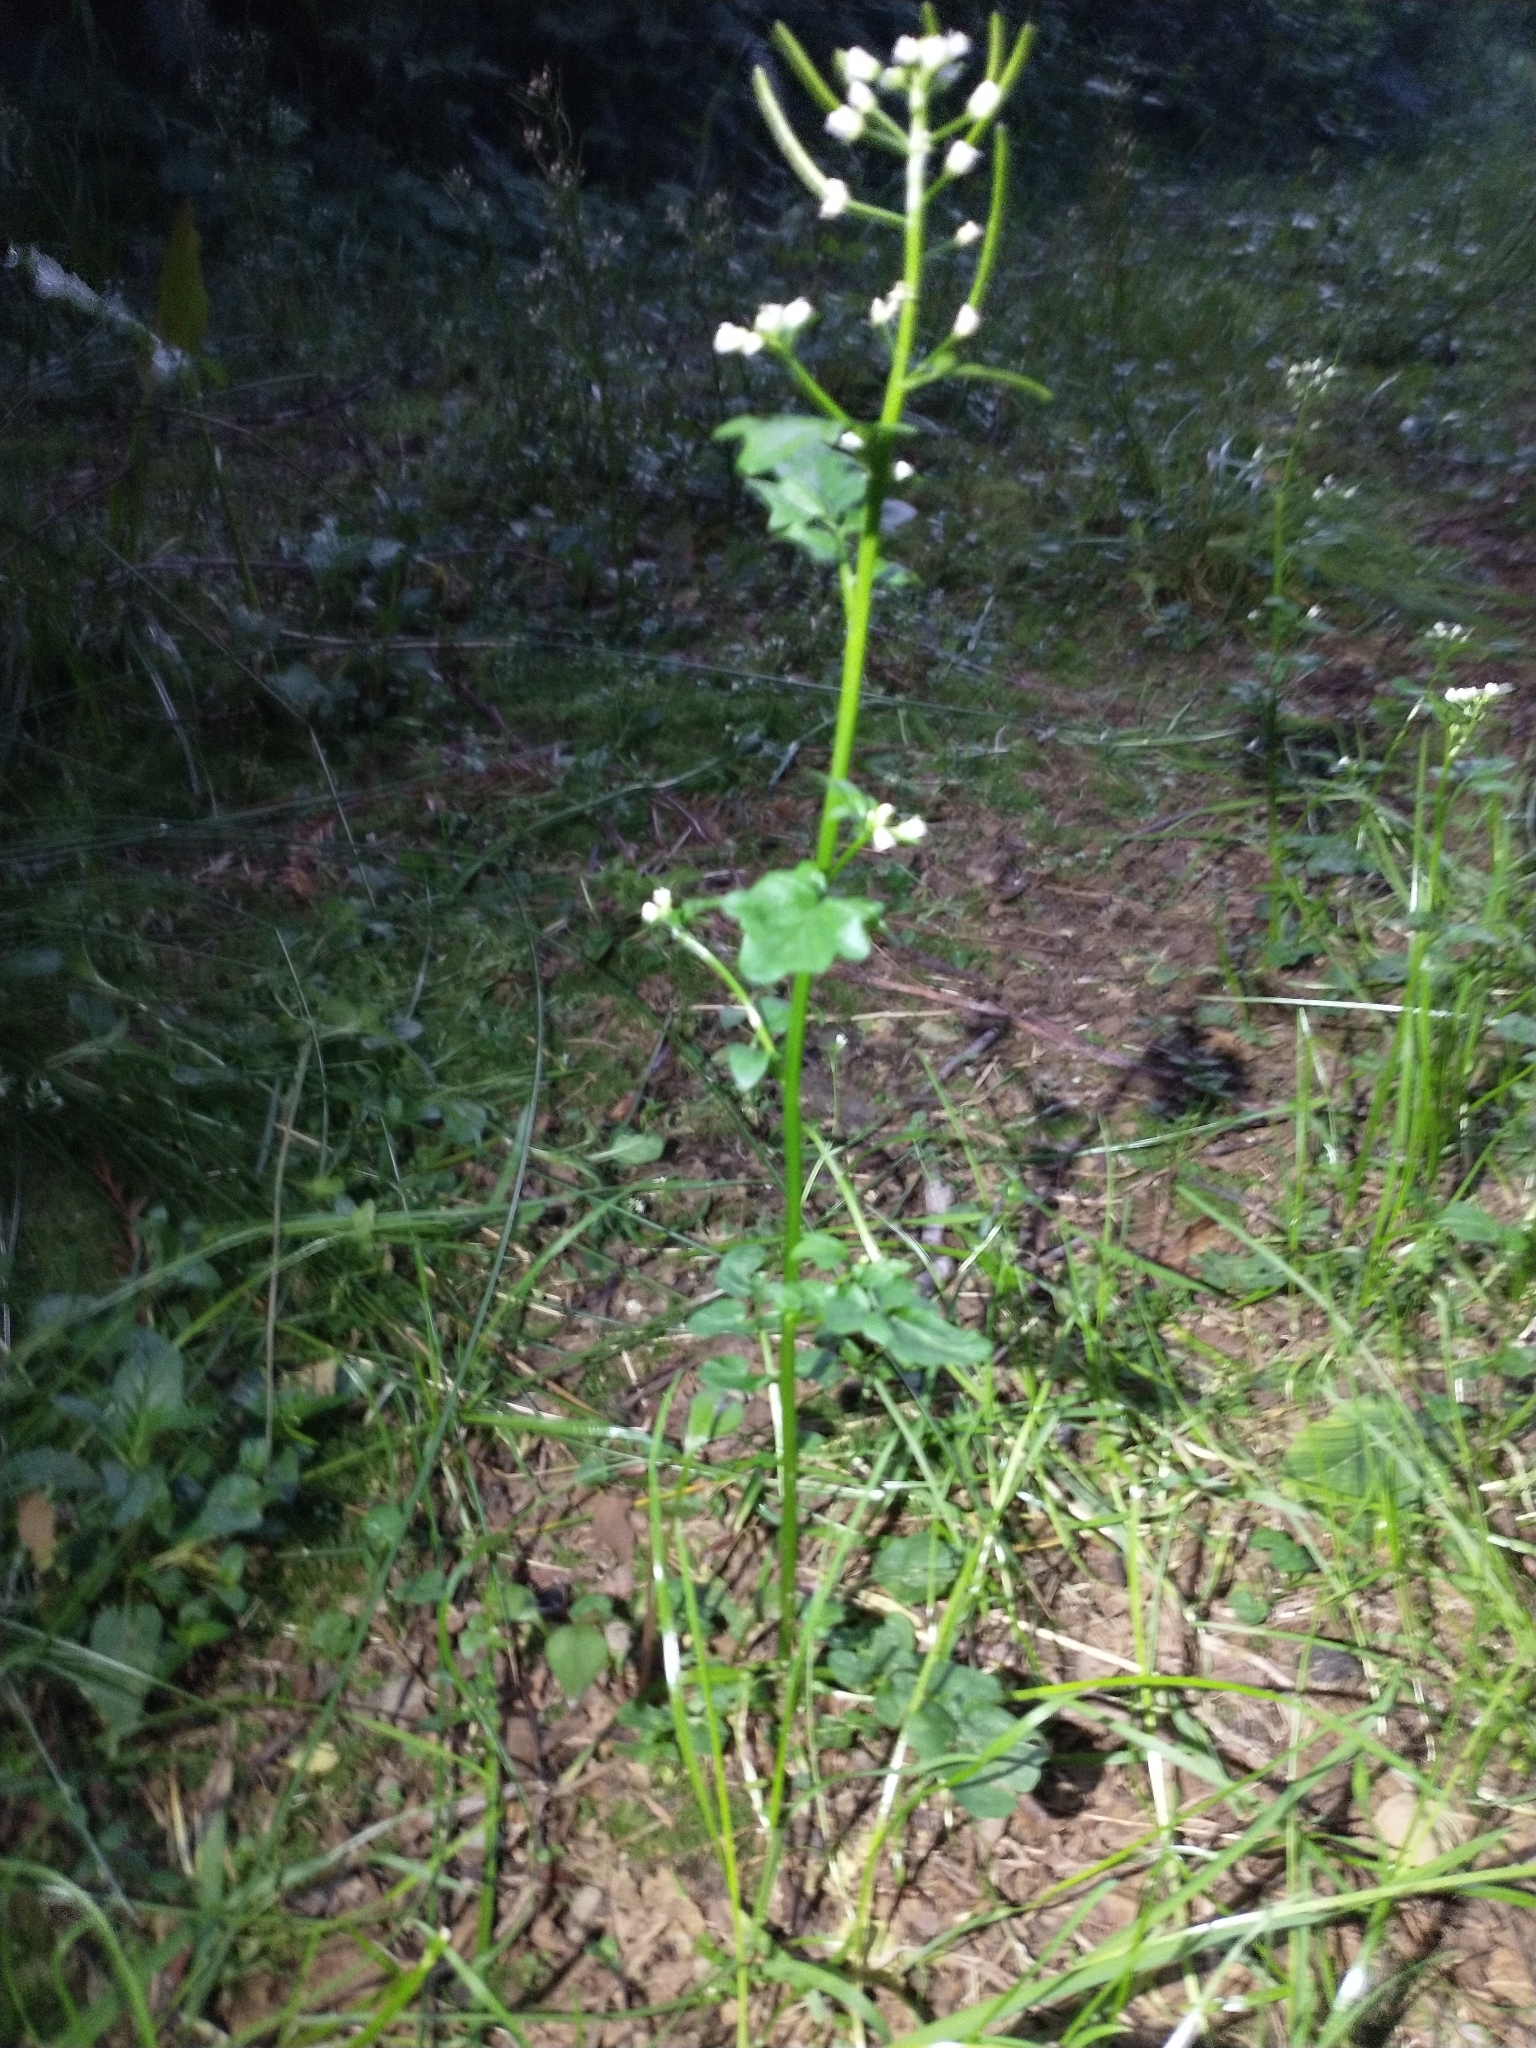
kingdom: Plantae
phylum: Tracheophyta
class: Magnoliopsida
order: Brassicales
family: Brassicaceae
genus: Cardamine
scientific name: Cardamine breweri
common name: Brewer's bittercress
